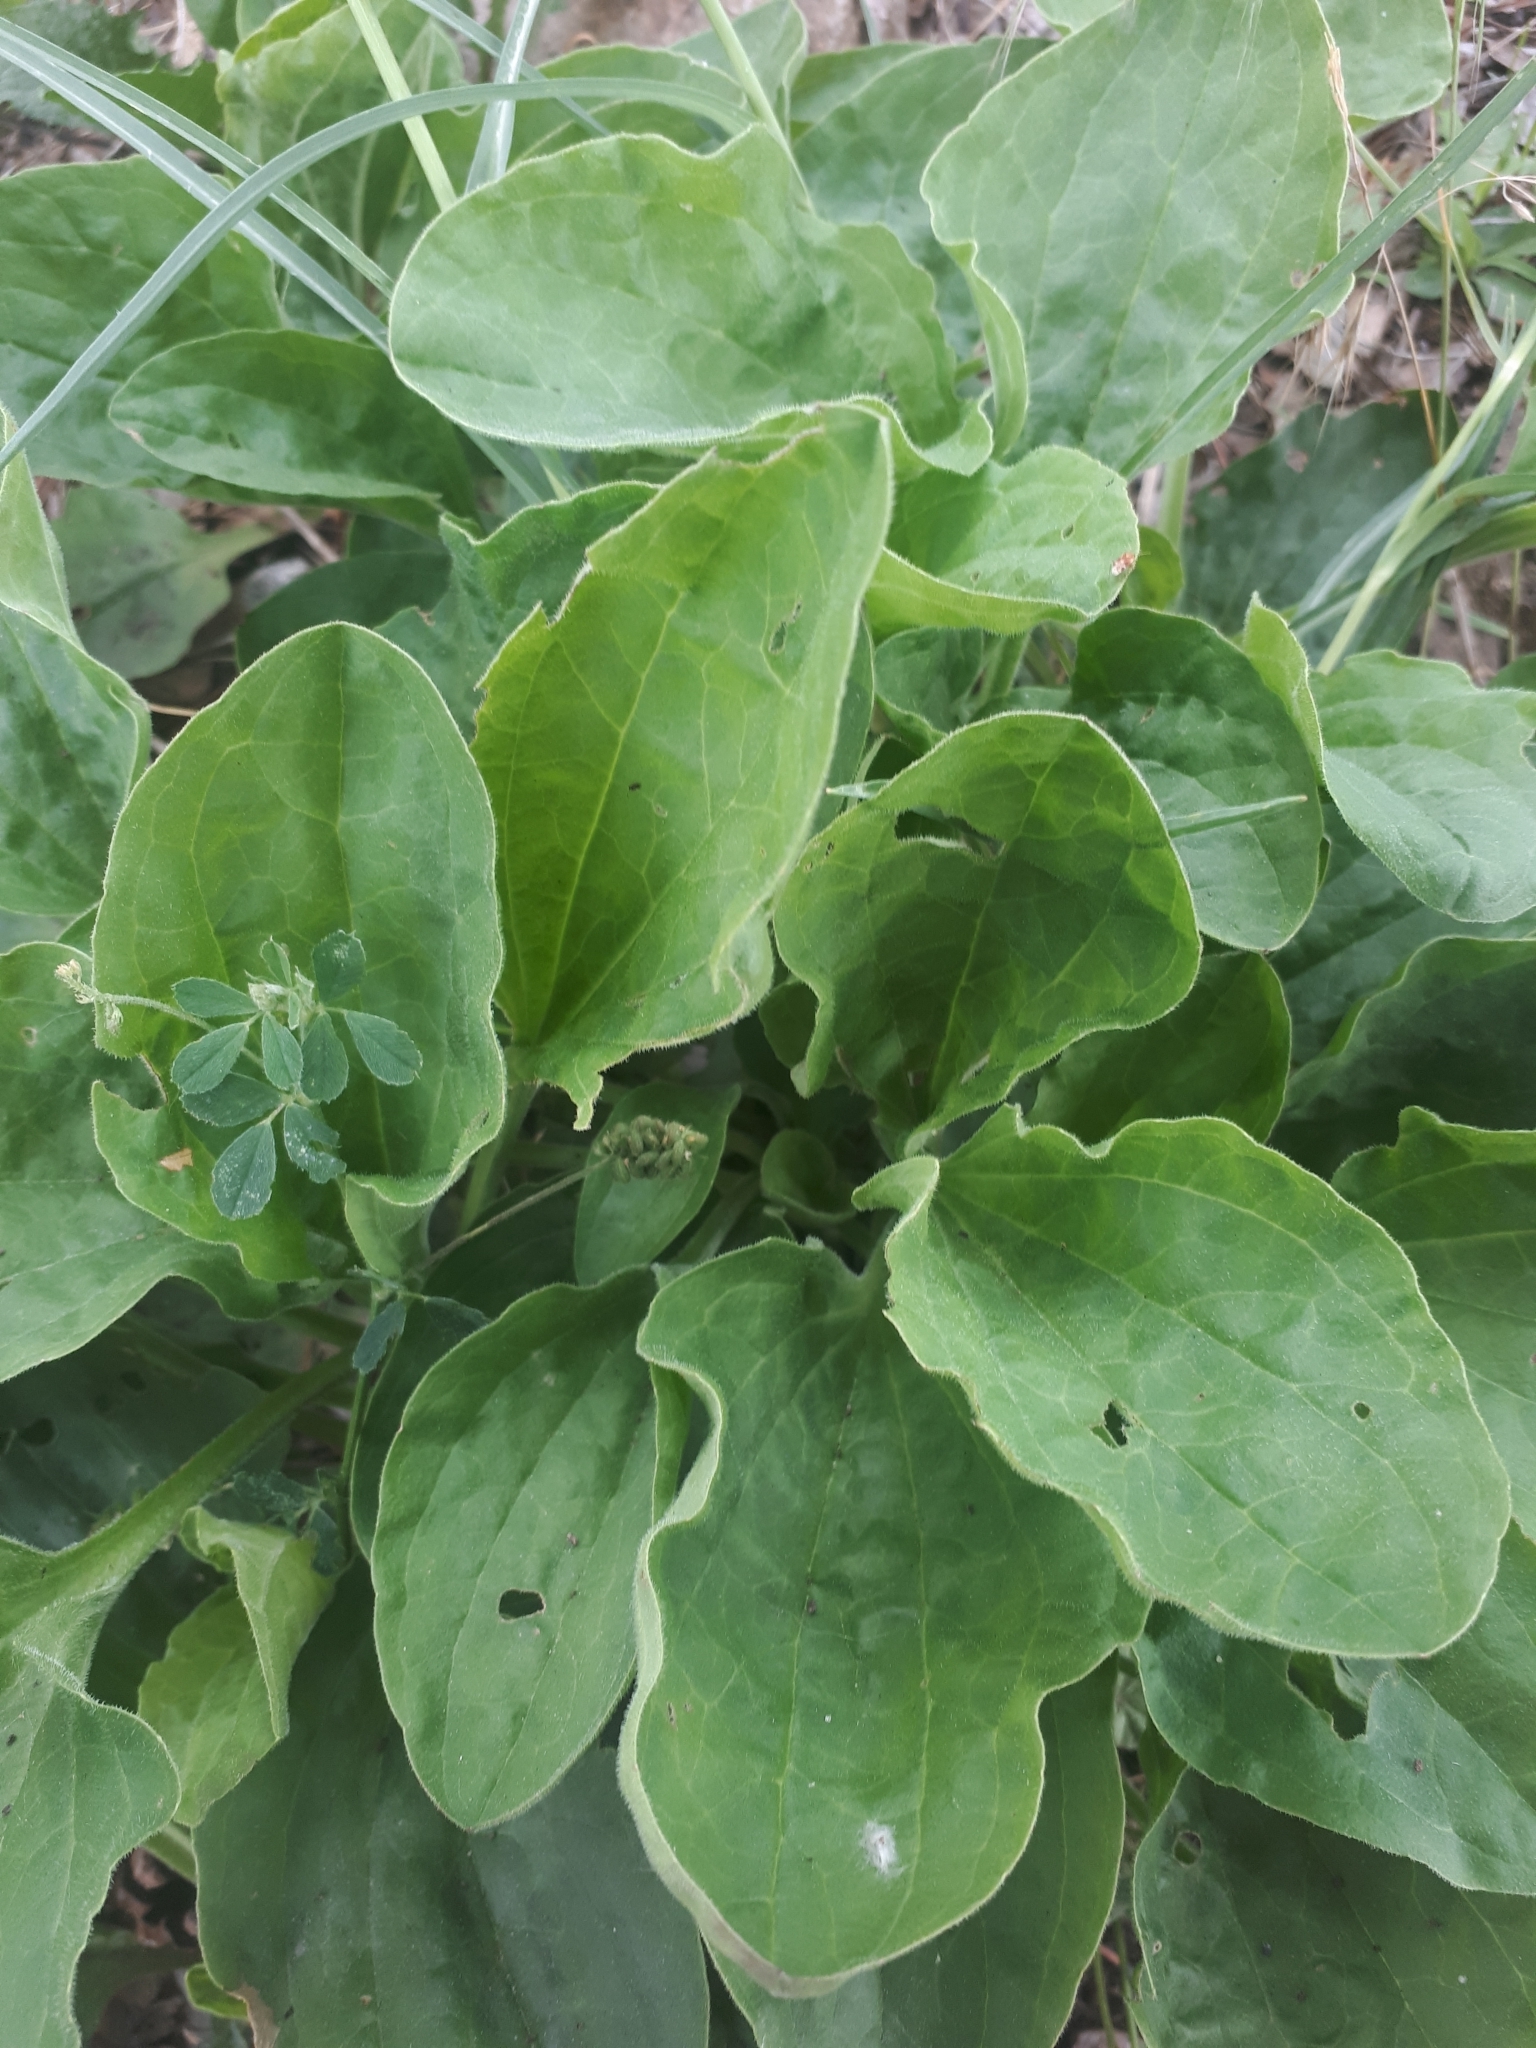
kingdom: Plantae
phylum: Tracheophyta
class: Magnoliopsida
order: Lamiales
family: Plantaginaceae
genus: Plantago
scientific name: Plantago major
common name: Common plantain
